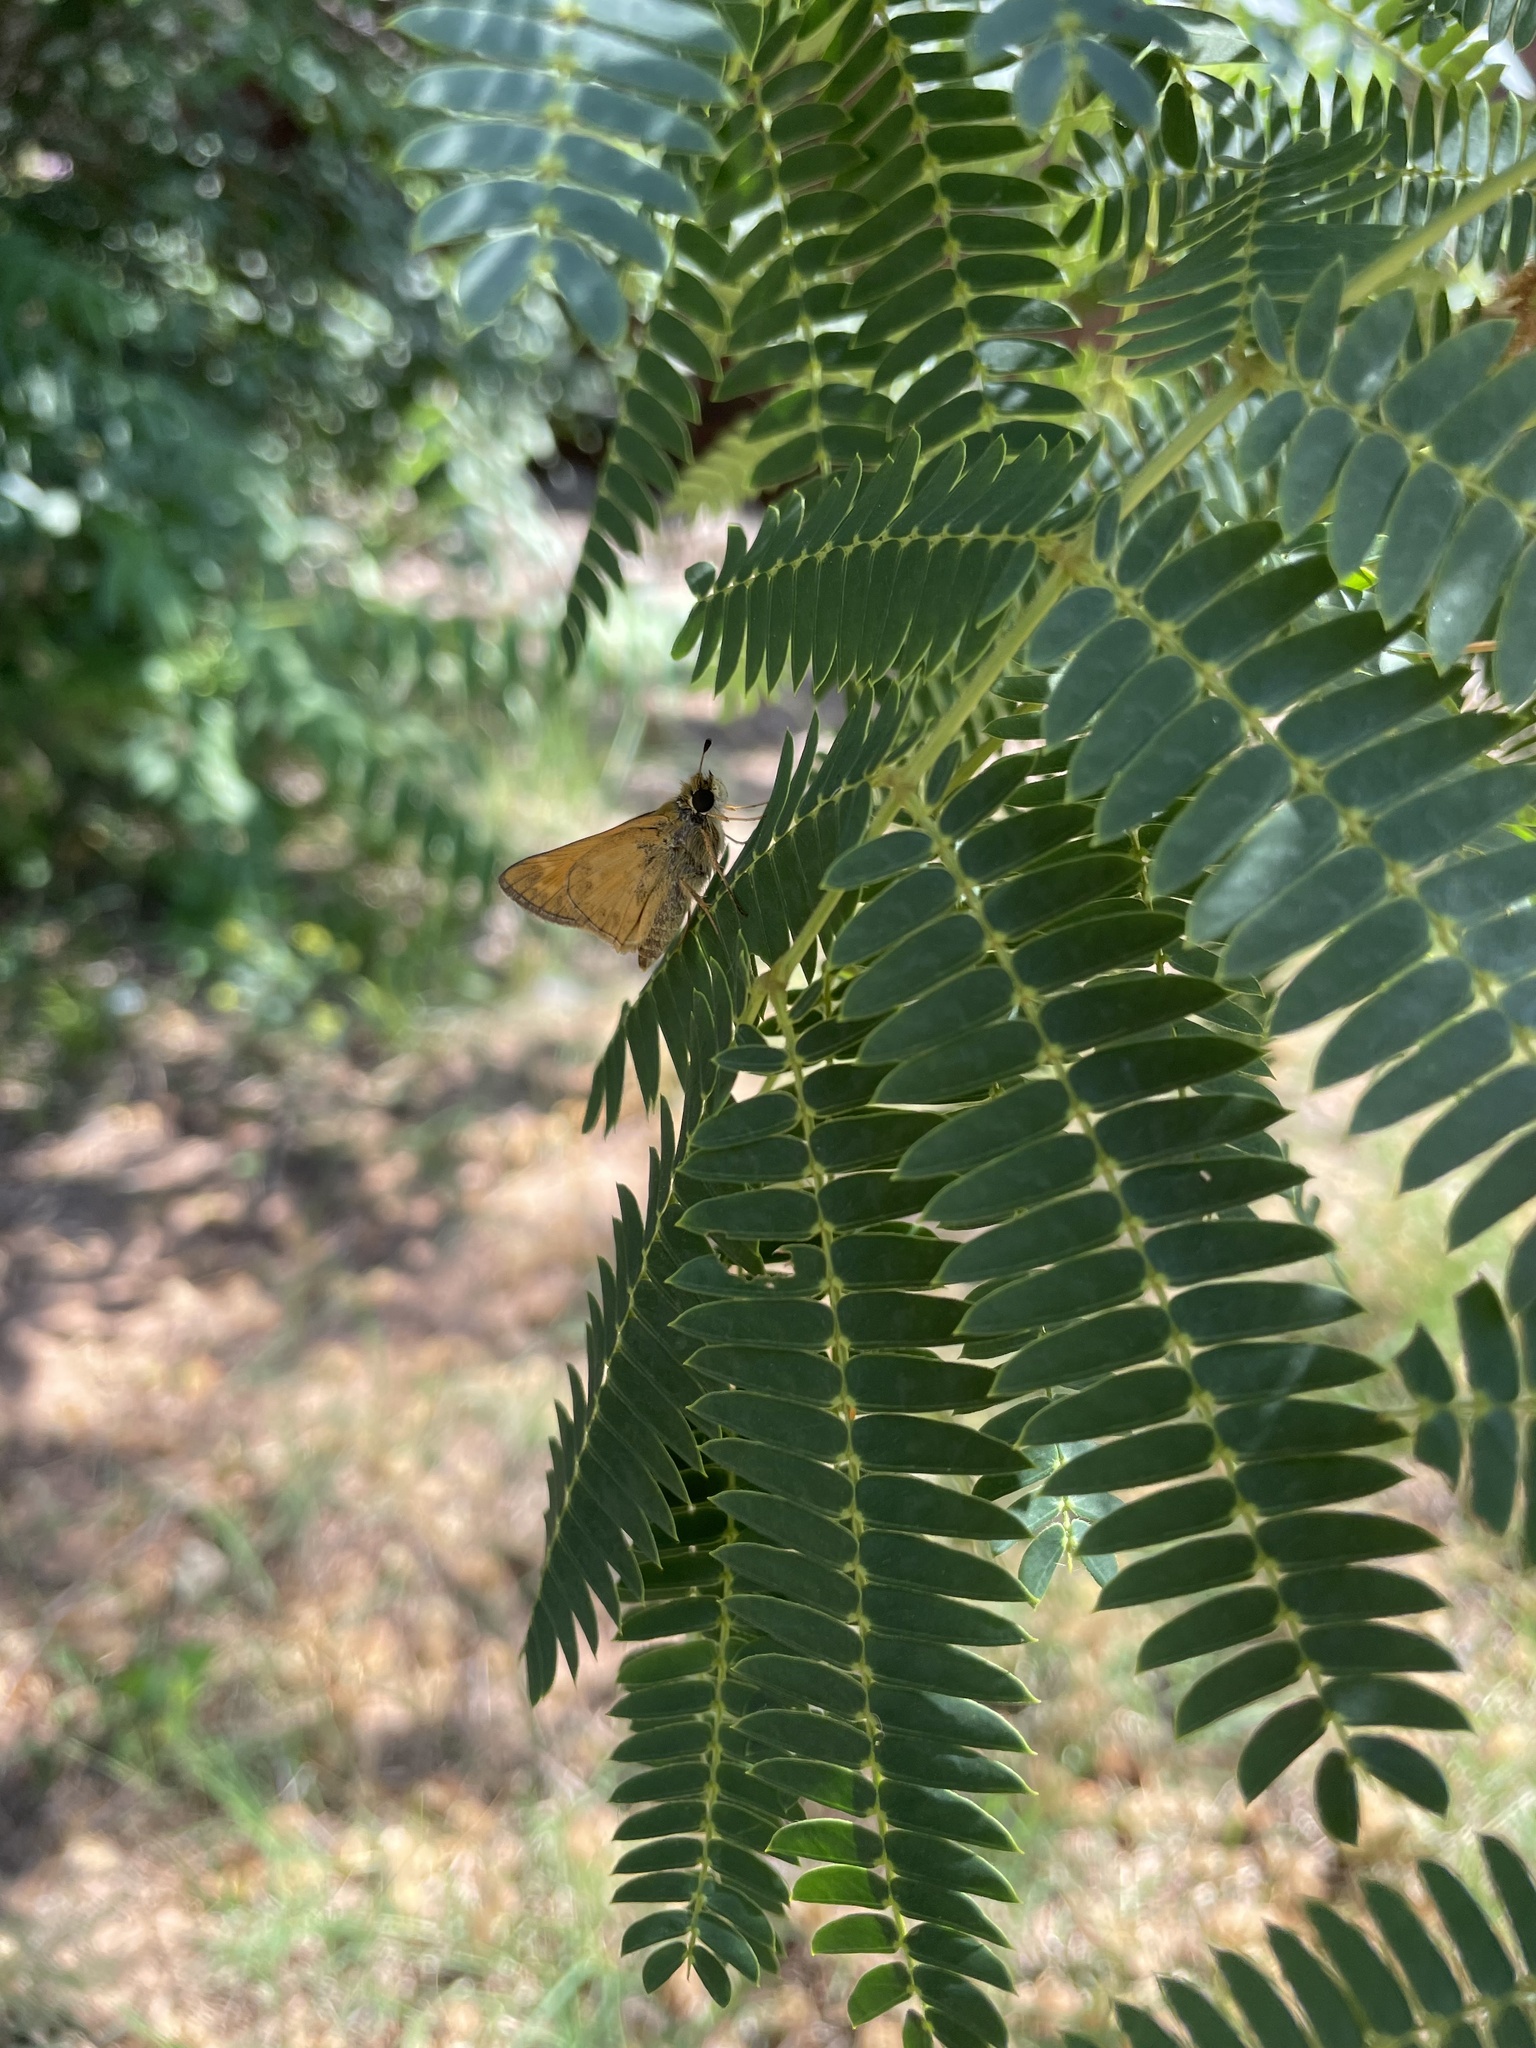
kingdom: Animalia
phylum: Arthropoda
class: Insecta
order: Lepidoptera
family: Hesperiidae
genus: Atalopedes
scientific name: Atalopedes
